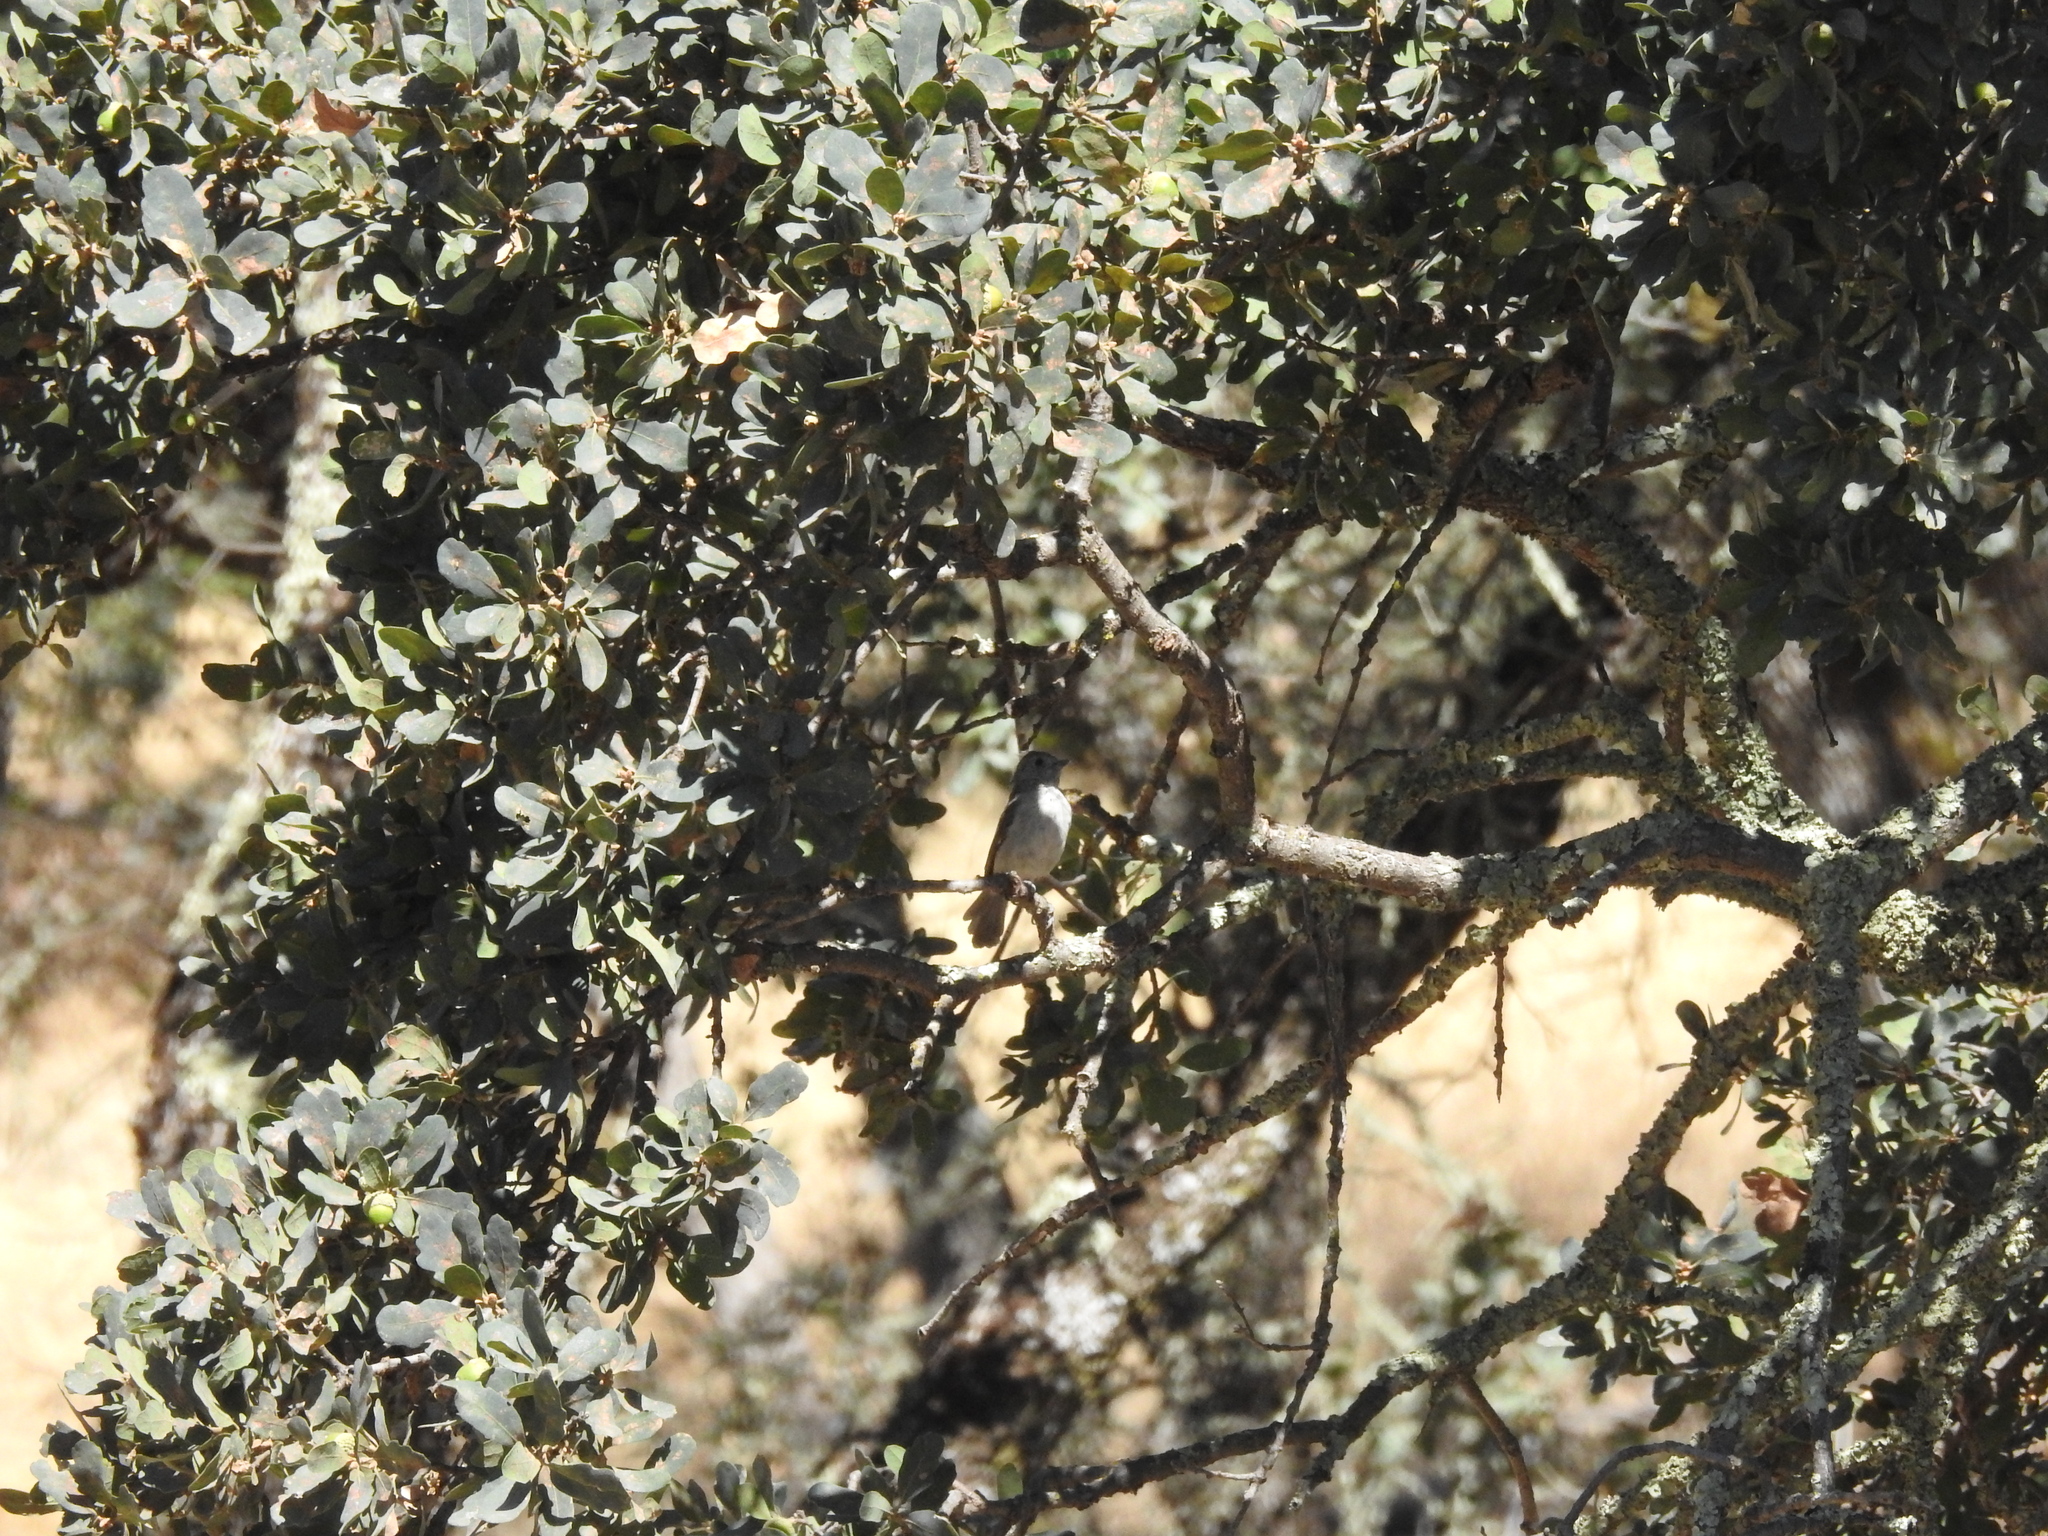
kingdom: Animalia
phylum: Chordata
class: Aves
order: Passeriformes
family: Paridae
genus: Baeolophus
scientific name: Baeolophus inornatus
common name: Oak titmouse
